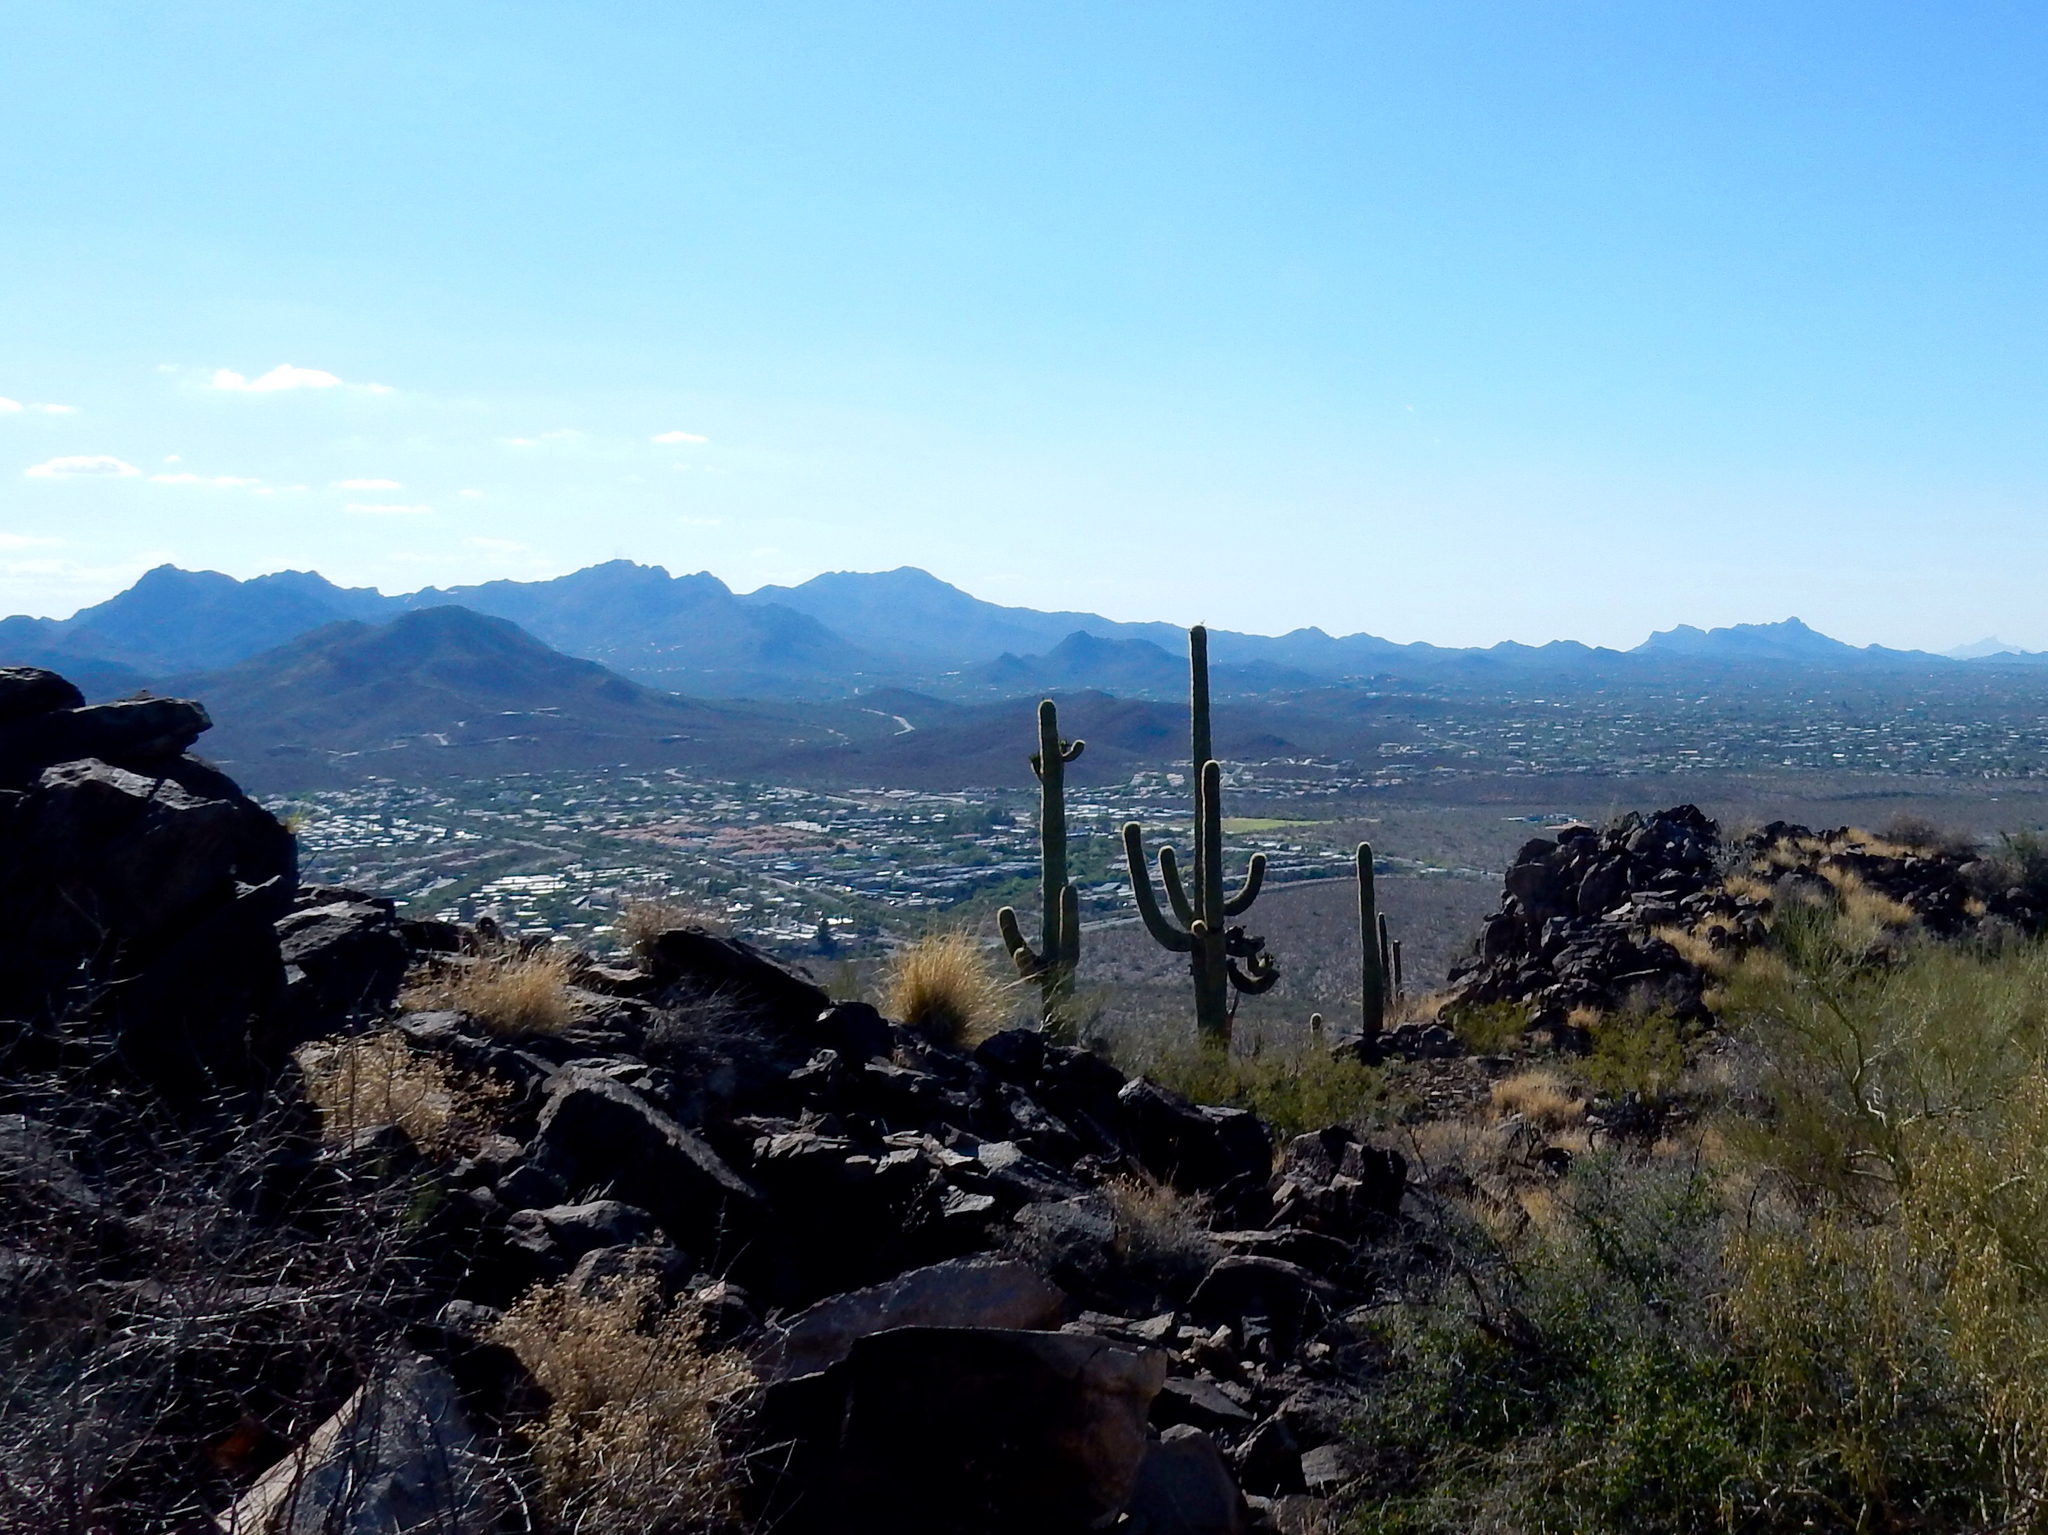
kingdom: Plantae
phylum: Tracheophyta
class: Magnoliopsida
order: Caryophyllales
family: Cactaceae
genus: Carnegiea
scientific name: Carnegiea gigantea
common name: Saguaro
